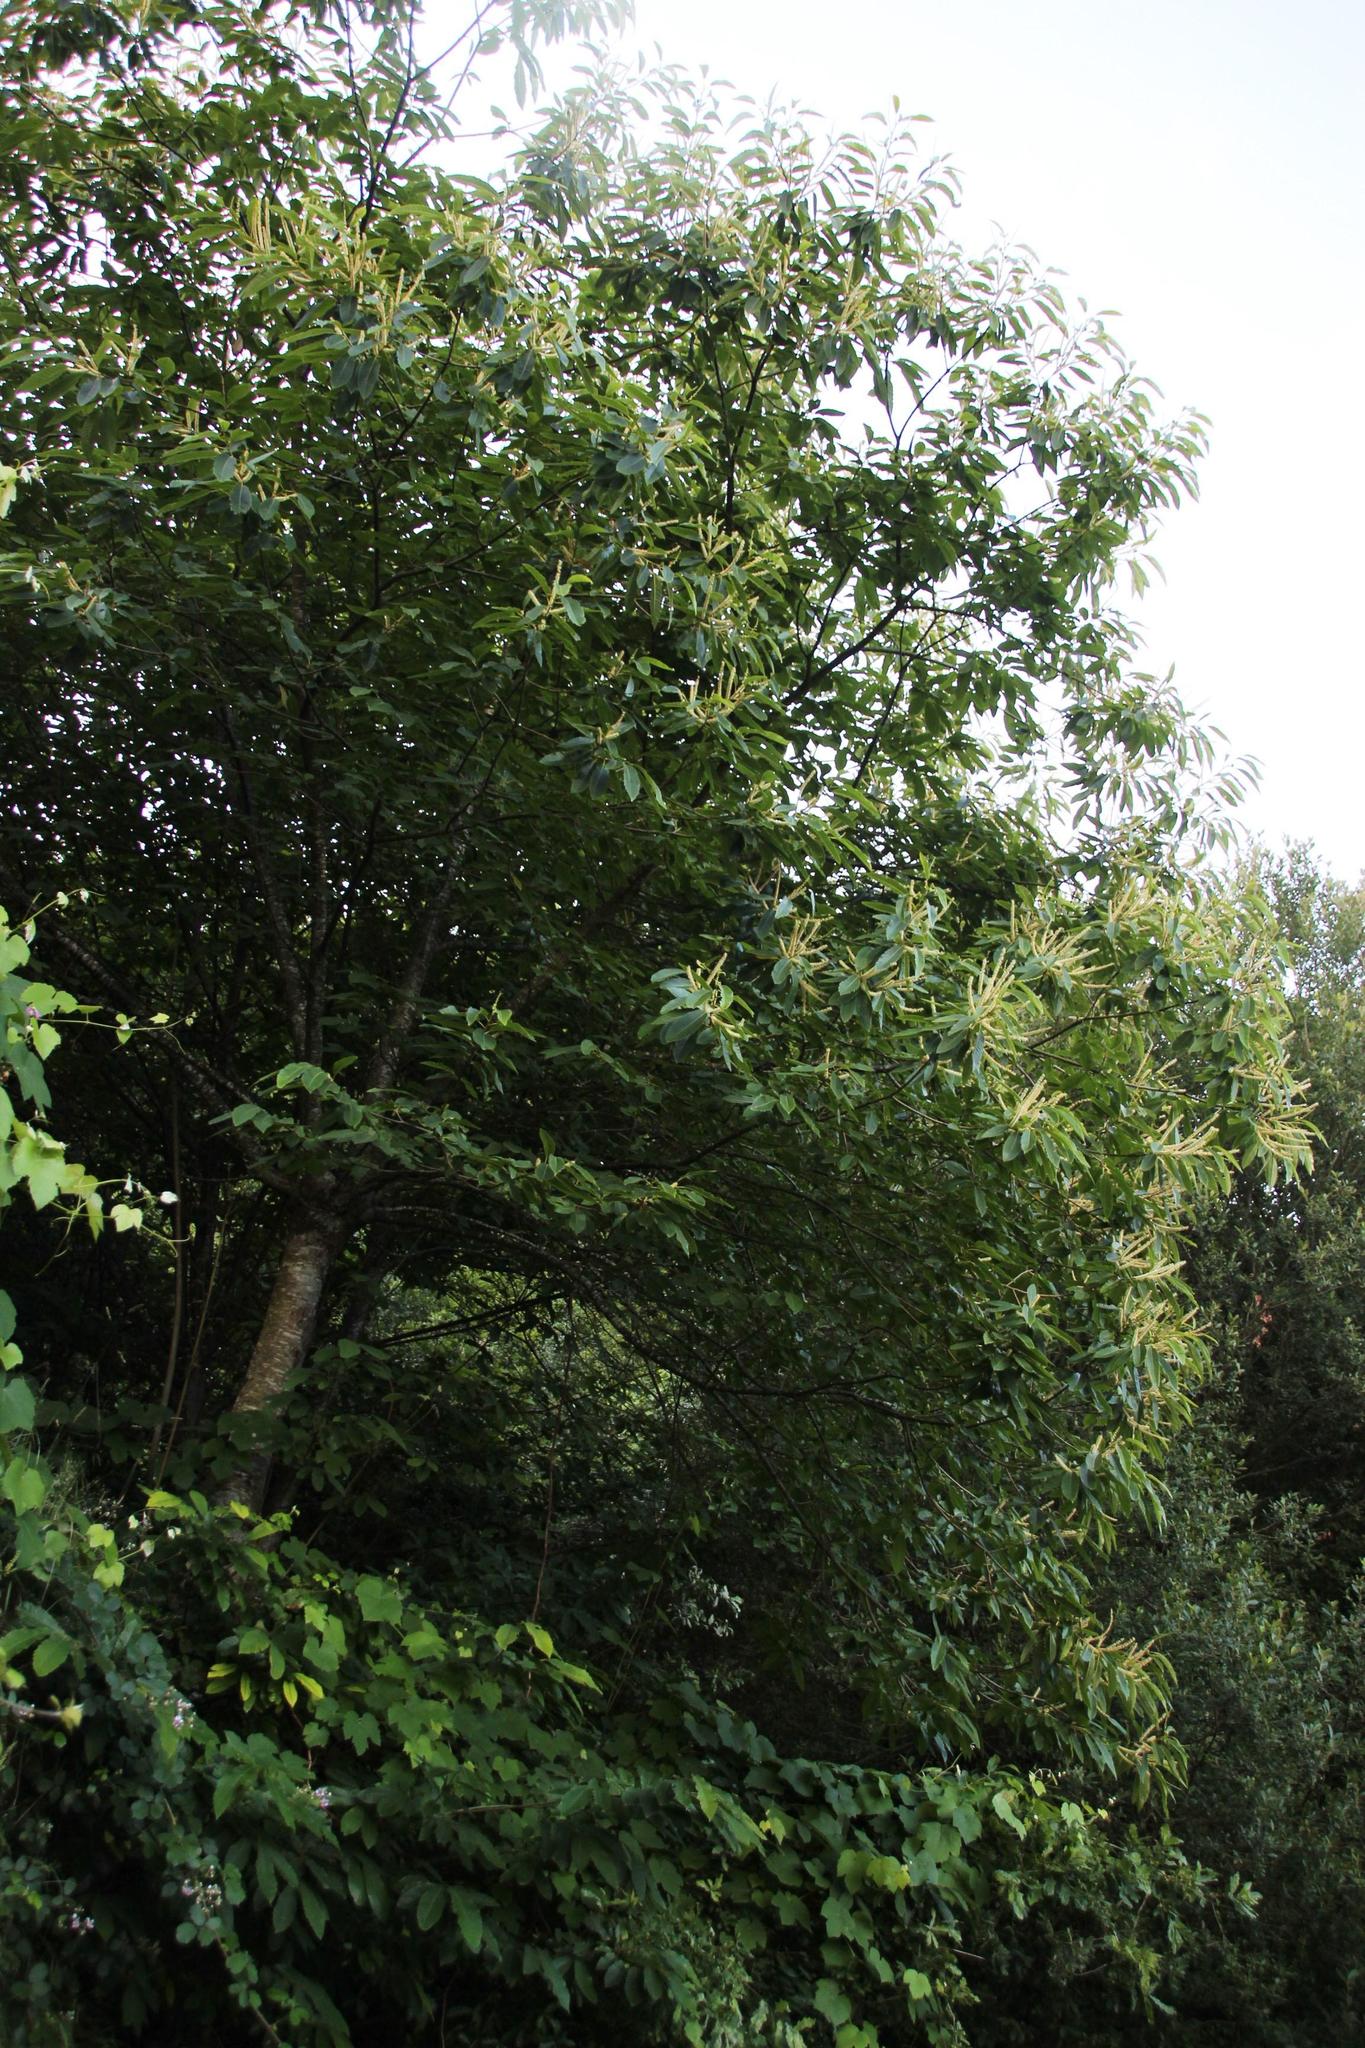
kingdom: Plantae
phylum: Tracheophyta
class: Magnoliopsida
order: Fagales
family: Fagaceae
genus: Castanea
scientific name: Castanea sativa
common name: Sweet chestnut
